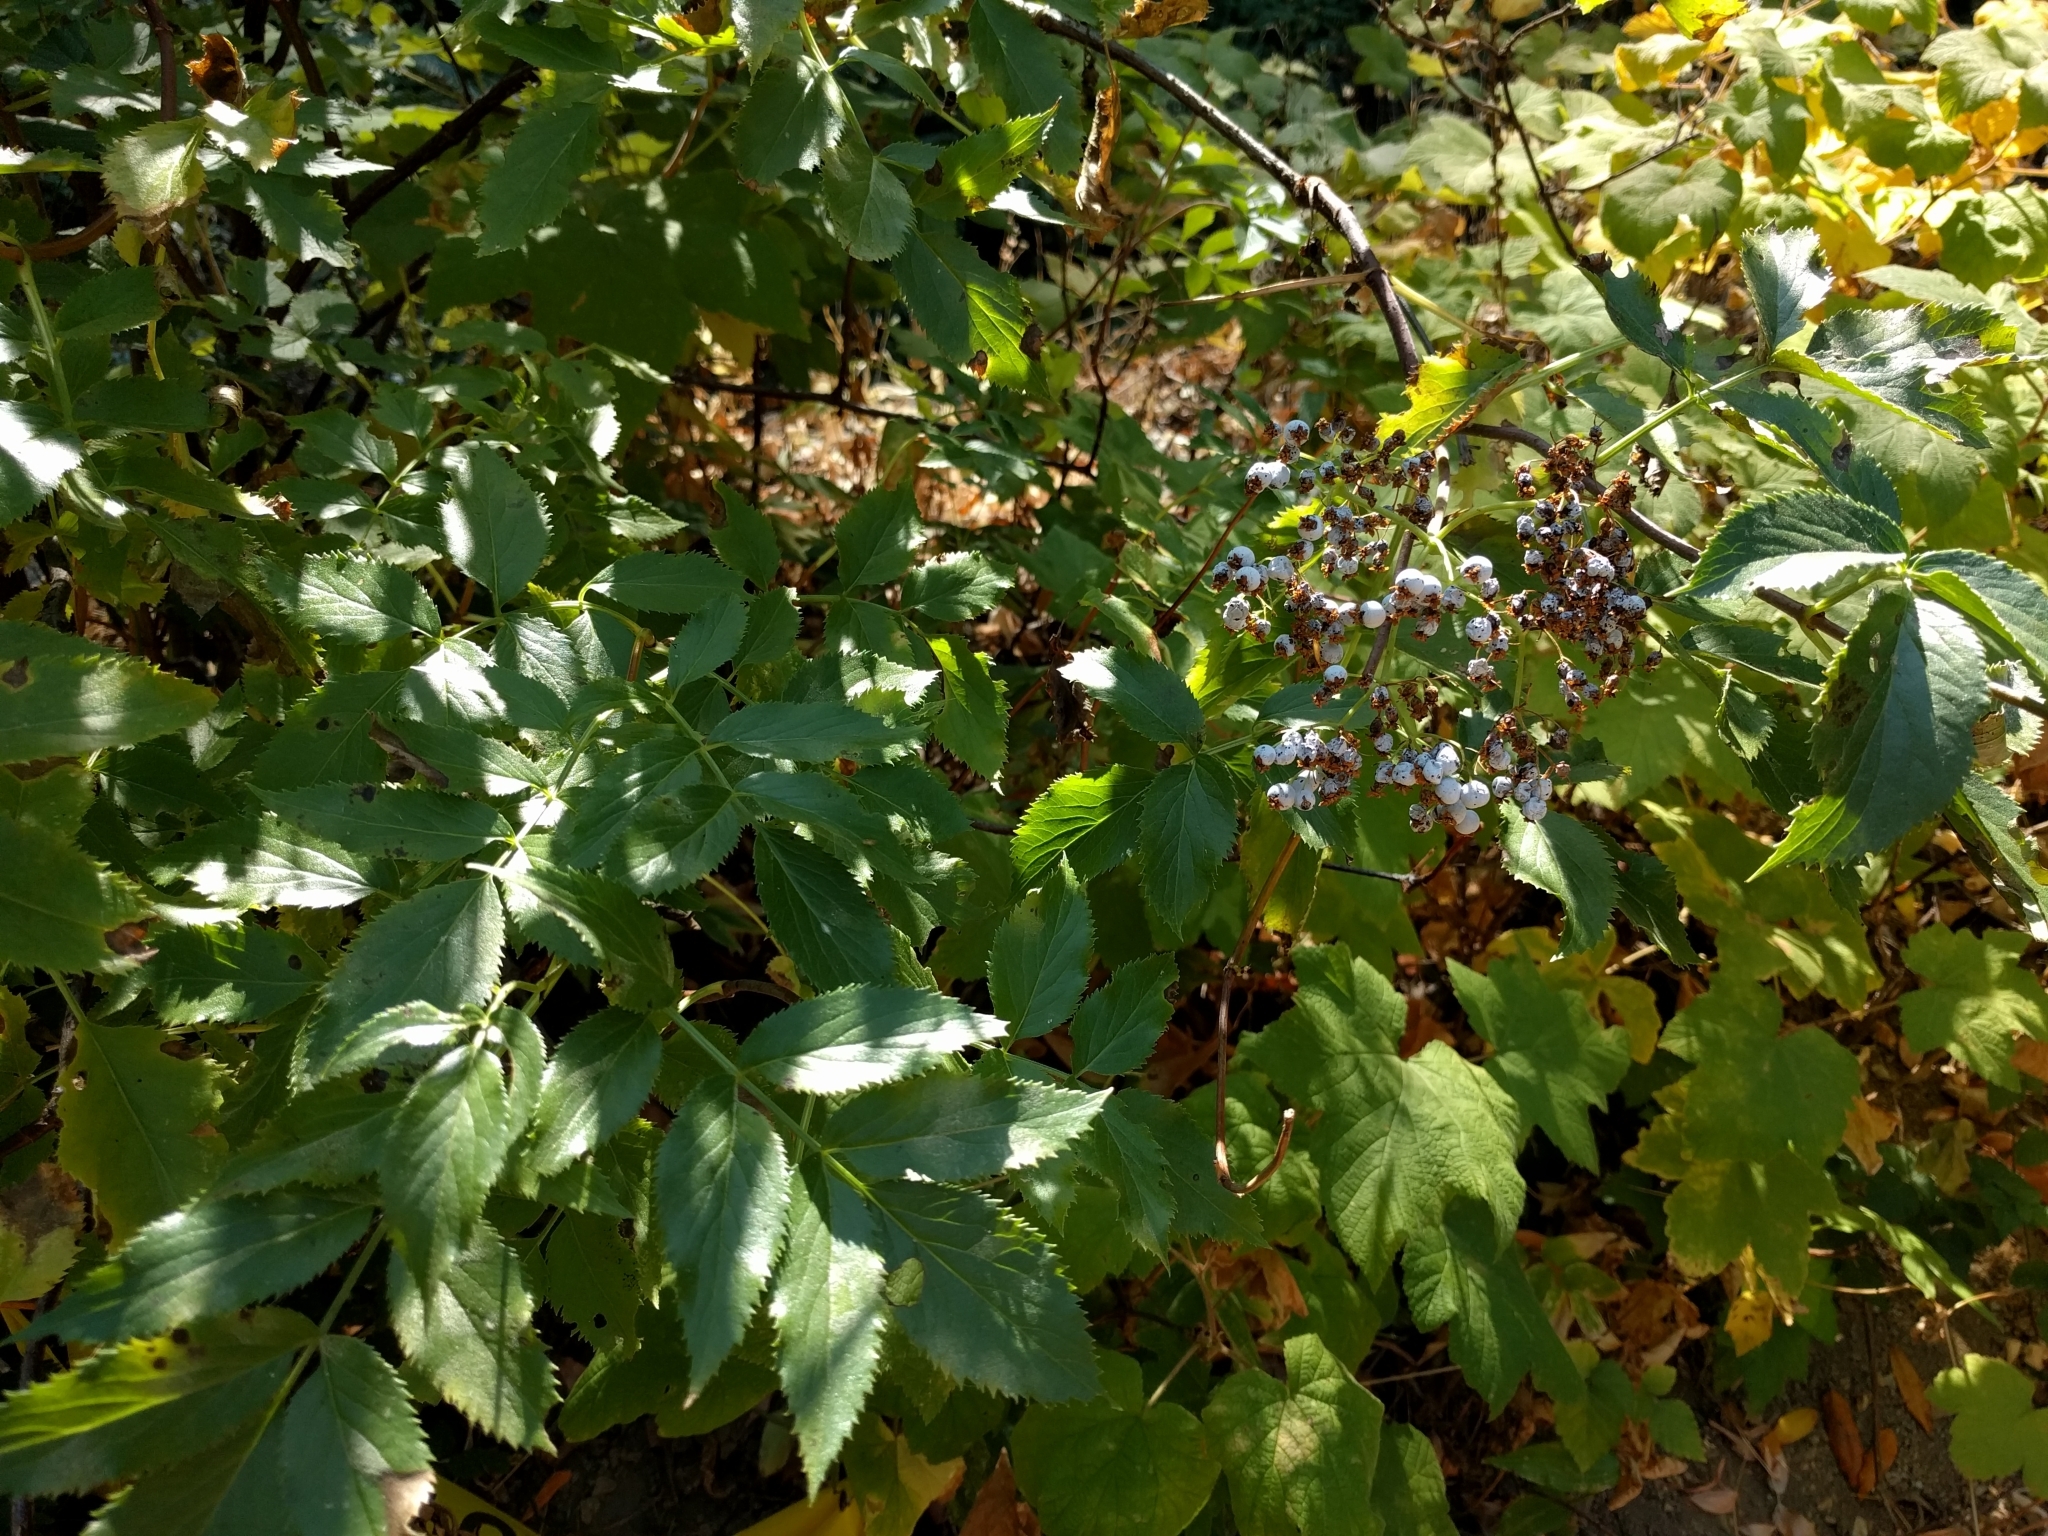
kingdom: Plantae
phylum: Tracheophyta
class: Magnoliopsida
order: Dipsacales
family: Viburnaceae
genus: Sambucus
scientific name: Sambucus cerulea
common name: Blue elder
